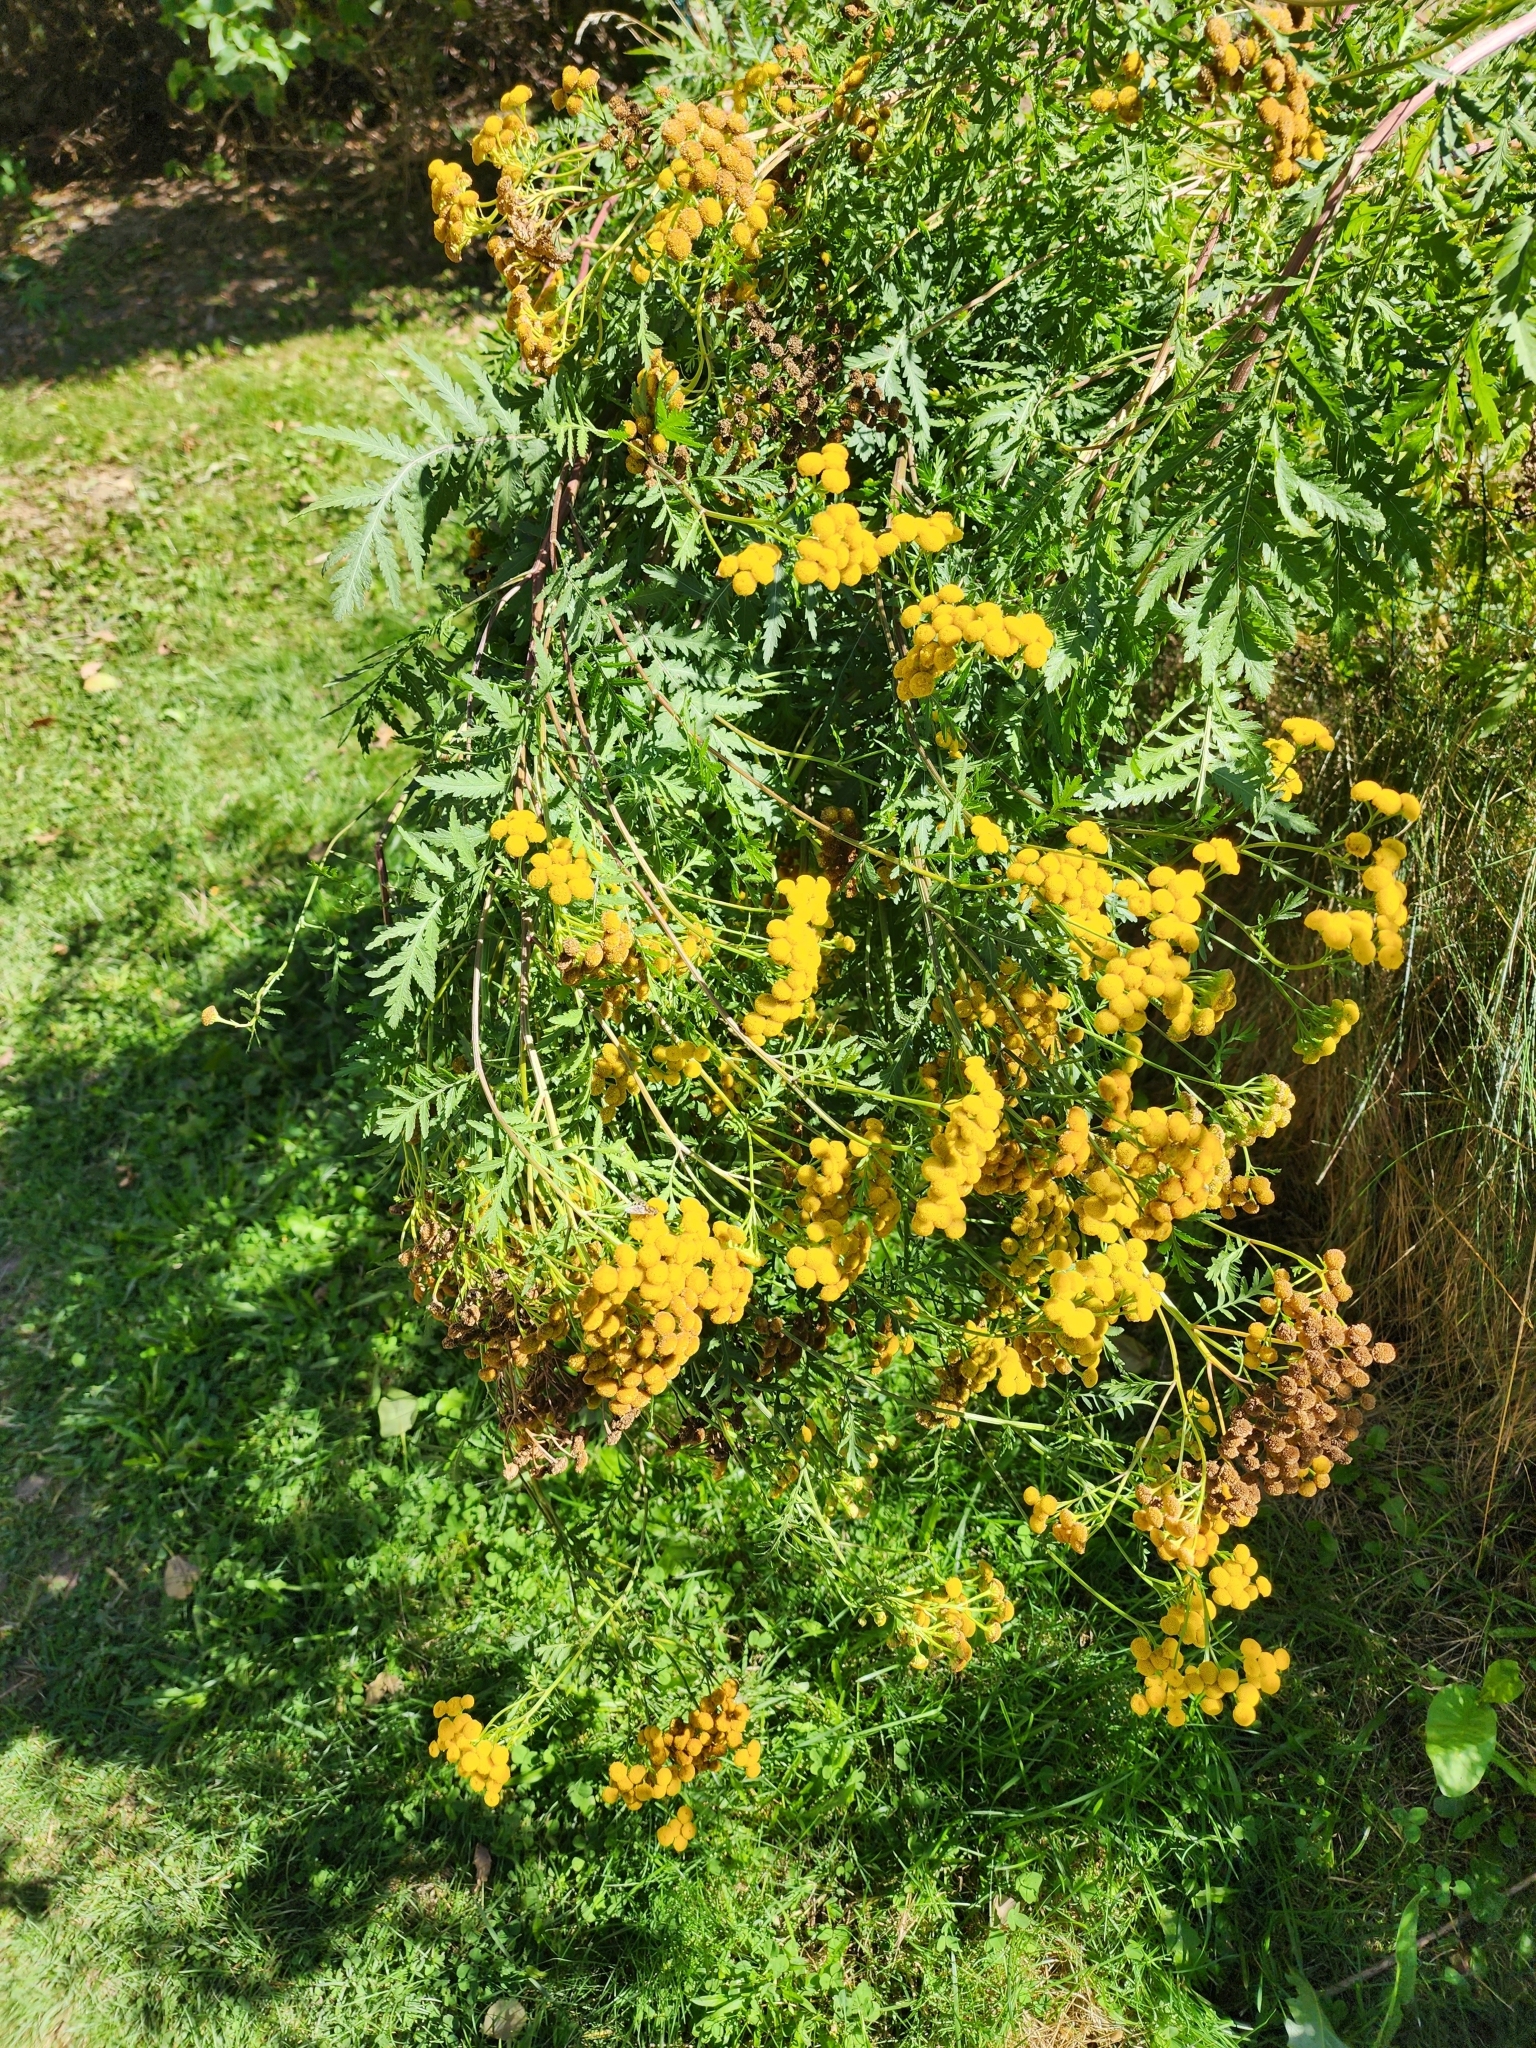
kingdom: Plantae
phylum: Tracheophyta
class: Magnoliopsida
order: Asterales
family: Asteraceae
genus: Tanacetum
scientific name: Tanacetum vulgare
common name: Common tansy
